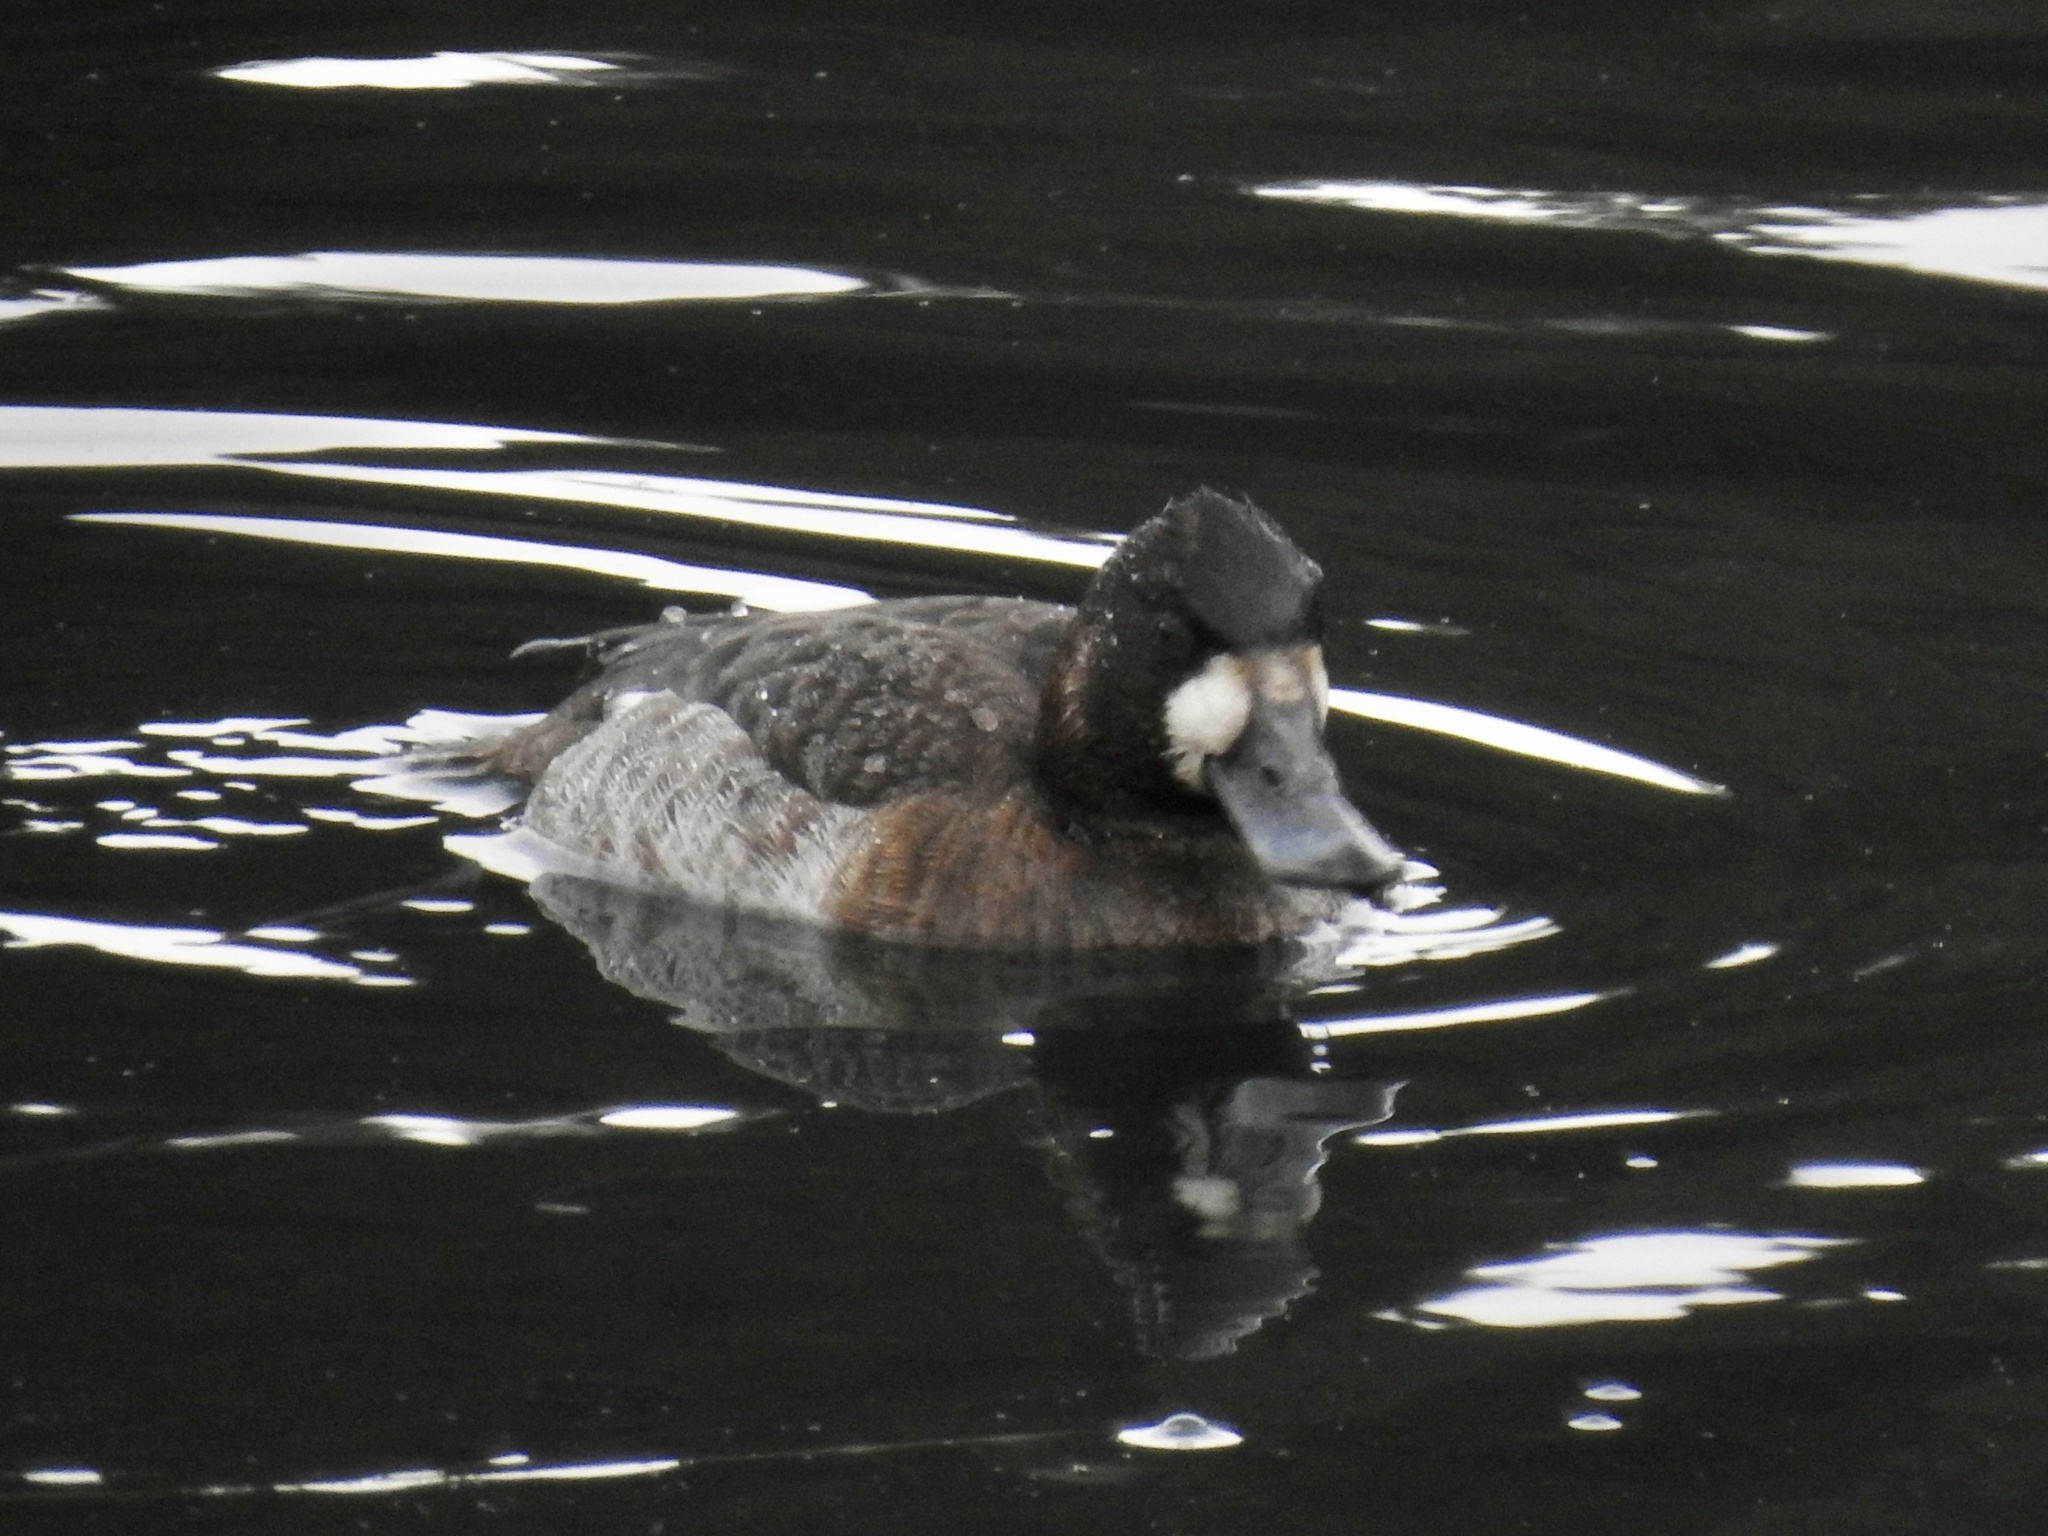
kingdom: Animalia
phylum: Chordata
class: Aves
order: Anseriformes
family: Anatidae
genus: Aythya
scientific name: Aythya marila
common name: Greater scaup
